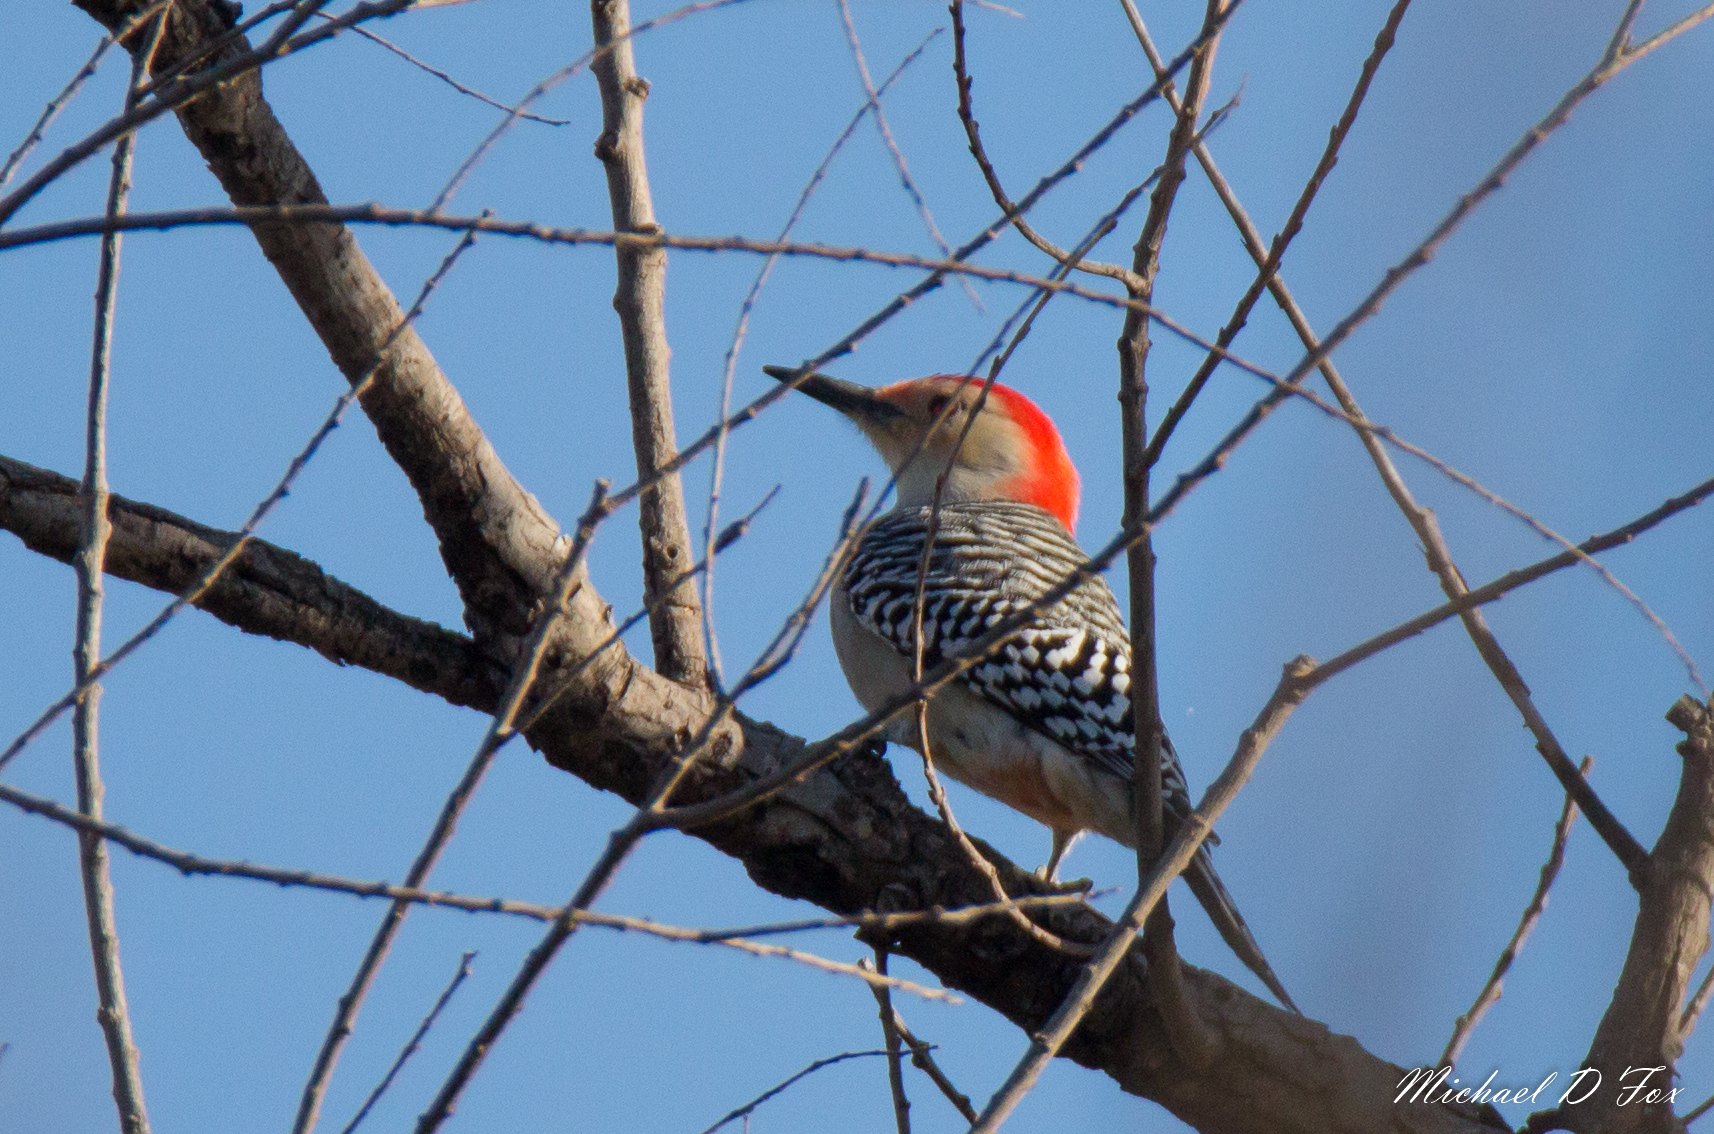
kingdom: Animalia
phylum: Chordata
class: Aves
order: Piciformes
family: Picidae
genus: Melanerpes
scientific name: Melanerpes carolinus
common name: Red-bellied woodpecker
